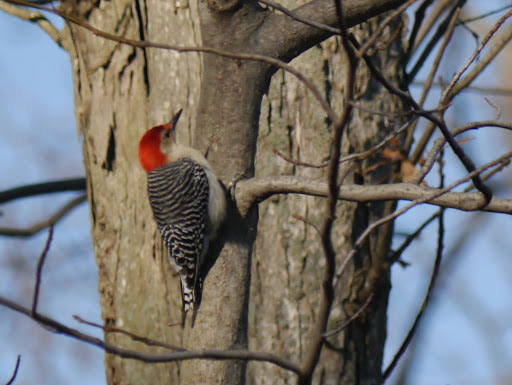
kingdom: Animalia
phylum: Chordata
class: Aves
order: Piciformes
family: Picidae
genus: Melanerpes
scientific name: Melanerpes carolinus
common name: Red-bellied woodpecker
